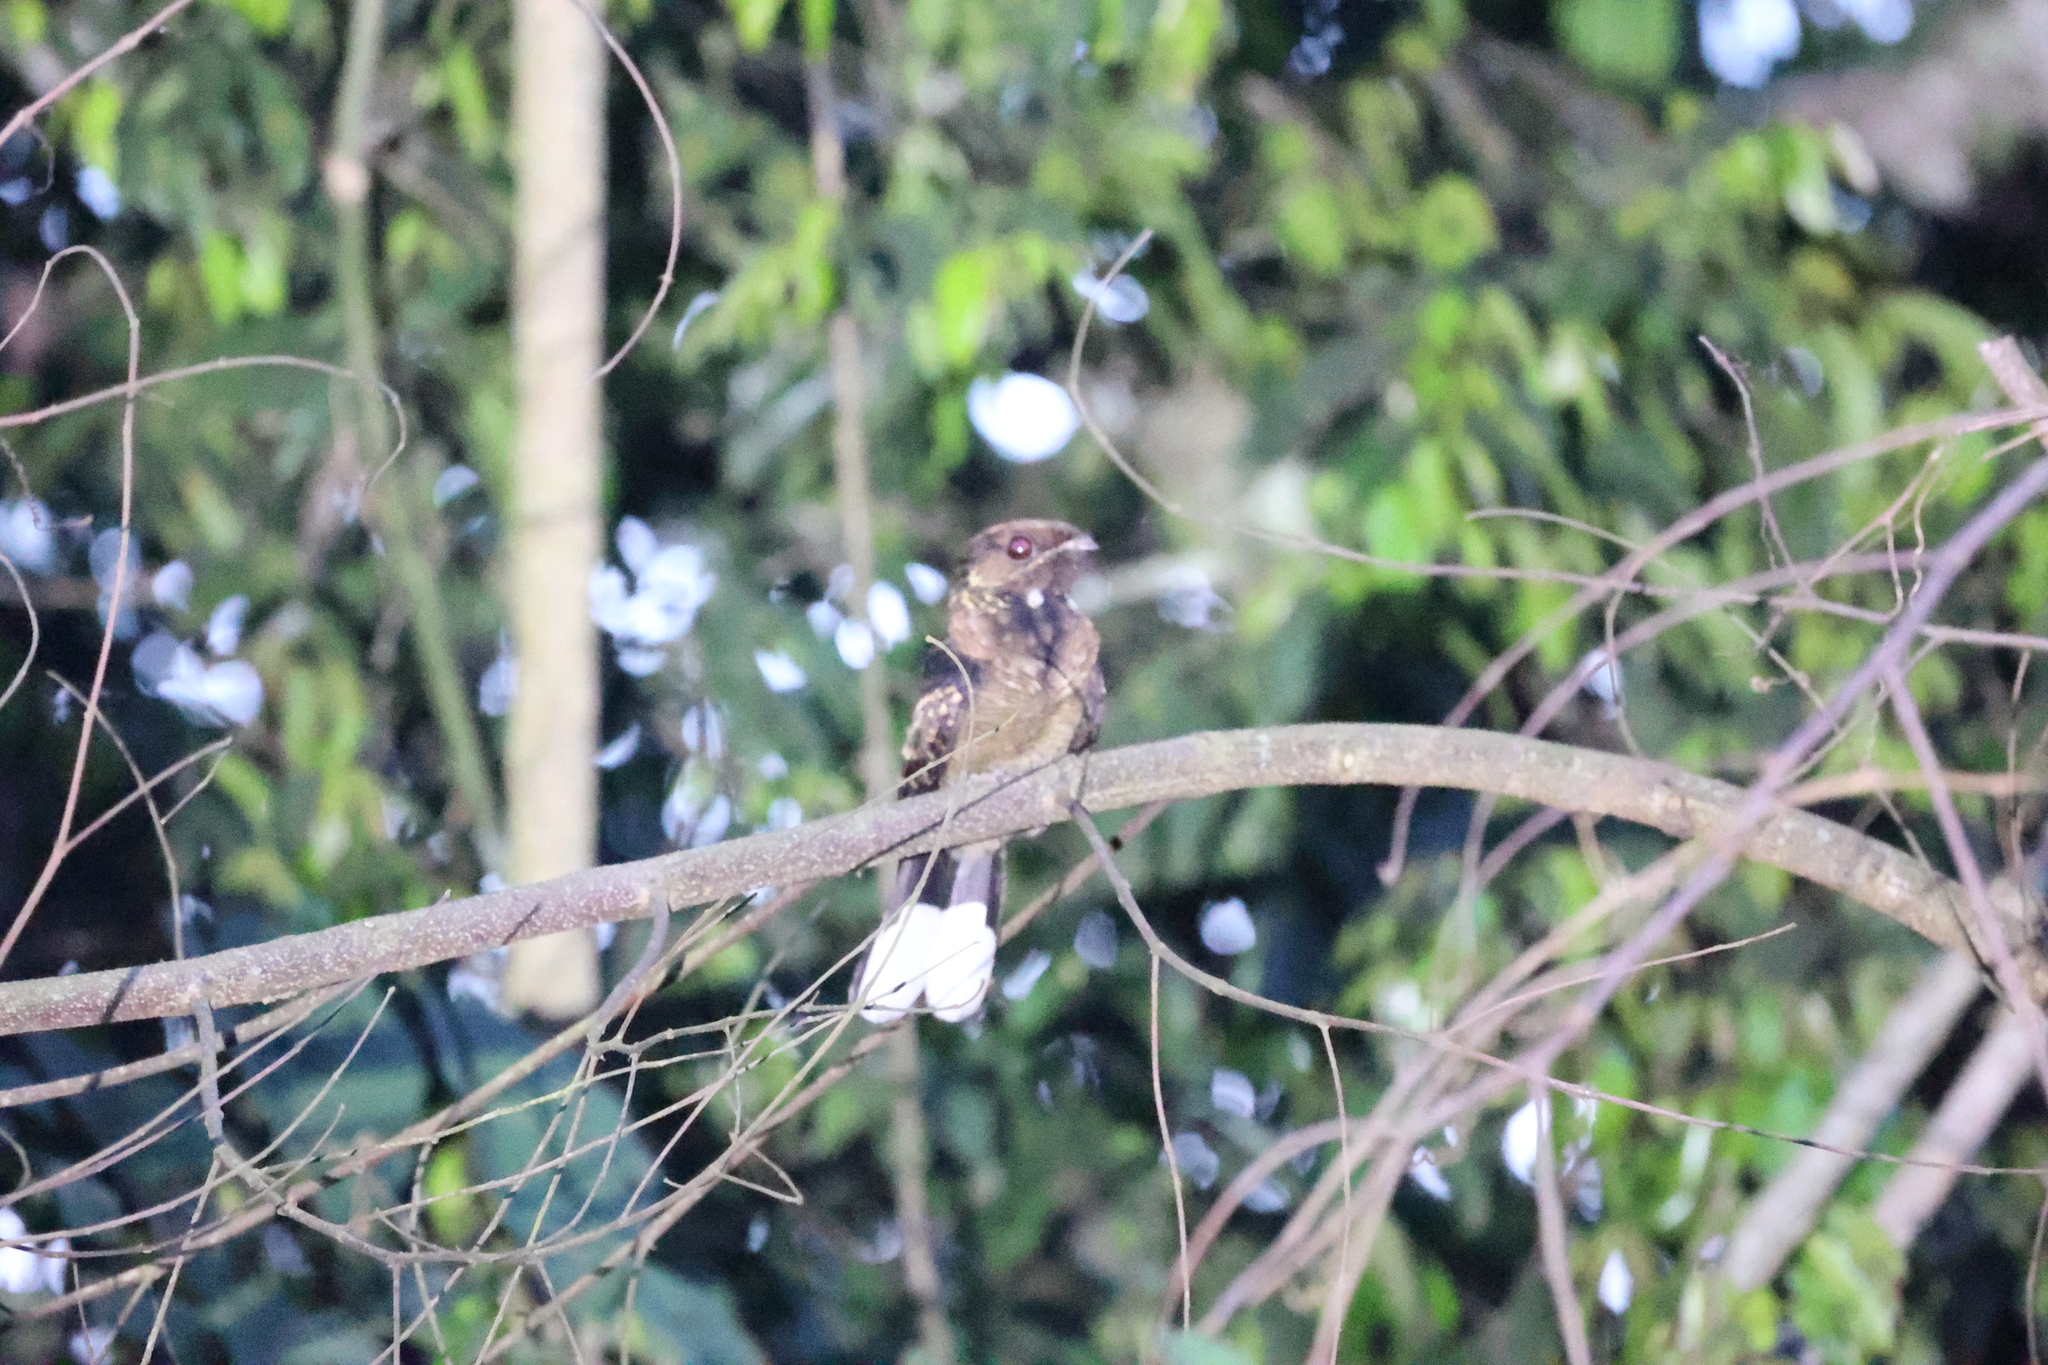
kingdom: Animalia
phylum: Chordata
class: Aves
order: Caprimulgiformes
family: Caprimulgidae
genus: Caprimulgus
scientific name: Caprimulgus pectoralis
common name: Fiery-necked nightjar
